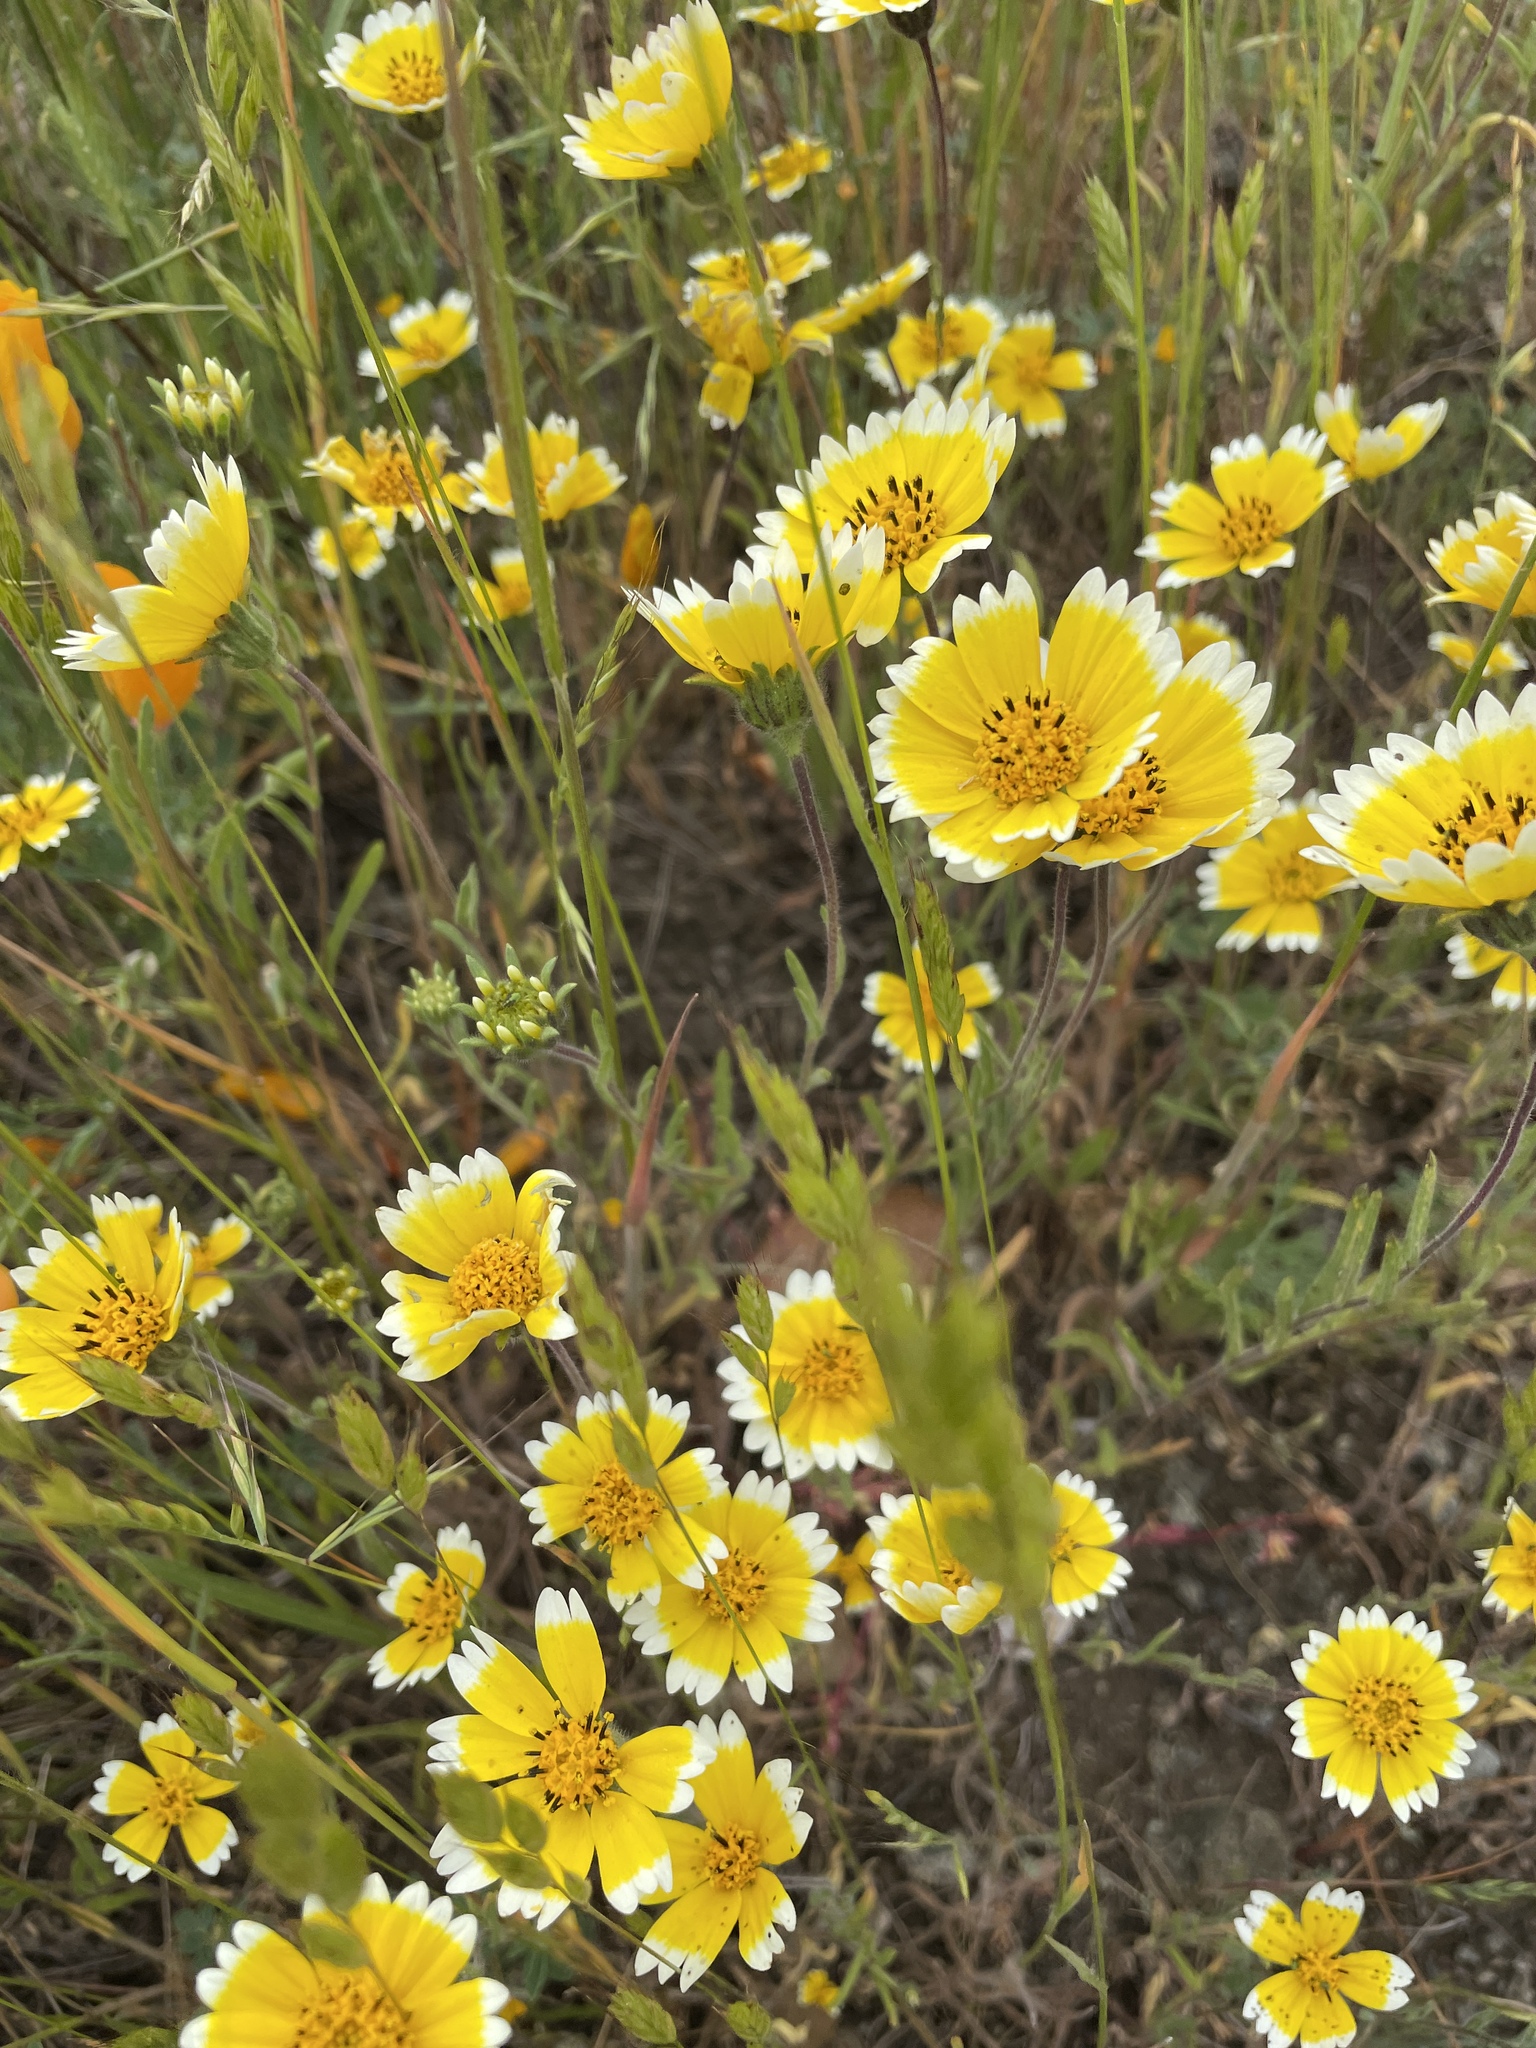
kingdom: Plantae
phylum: Tracheophyta
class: Magnoliopsida
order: Asterales
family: Asteraceae
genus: Layia
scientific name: Layia platyglossa
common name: Tidy-tips
